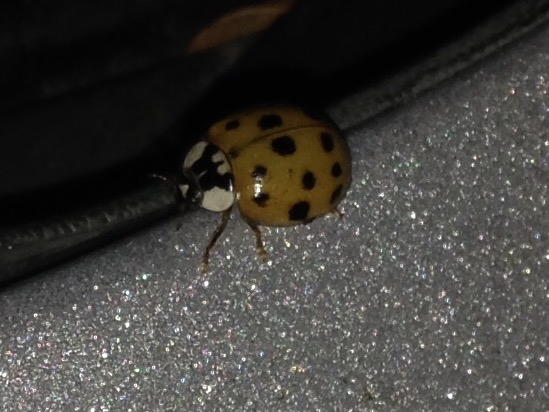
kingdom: Animalia
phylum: Arthropoda
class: Insecta
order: Coleoptera
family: Coccinellidae
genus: Harmonia
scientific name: Harmonia axyridis
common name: Harlequin ladybird
